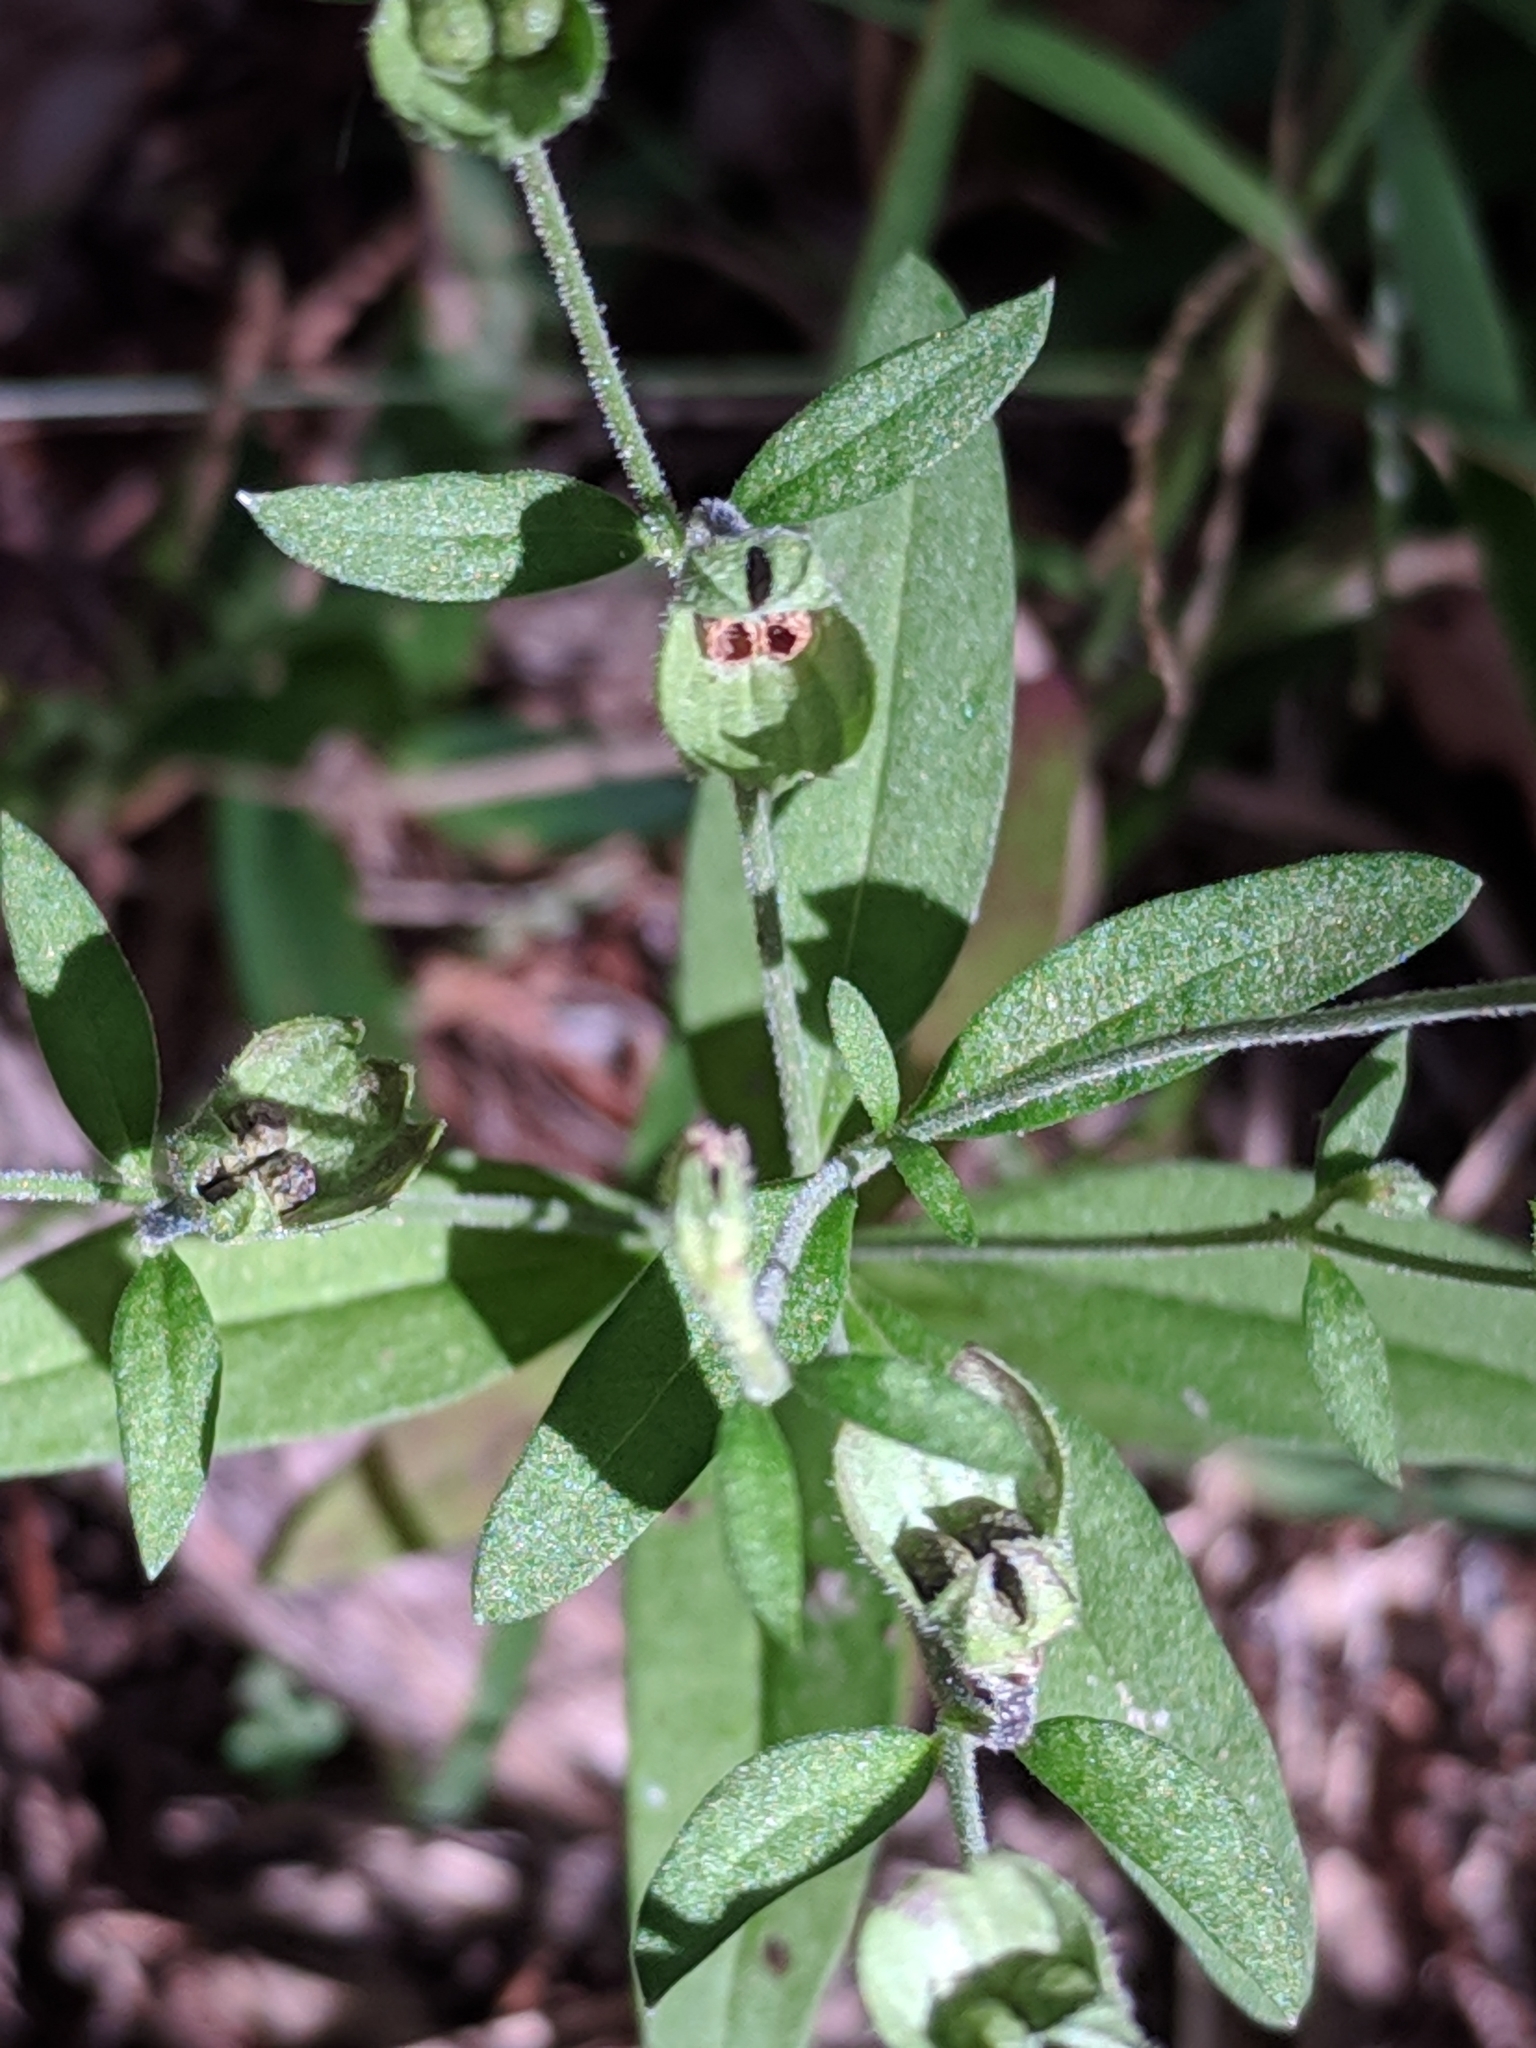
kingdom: Plantae
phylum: Tracheophyta
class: Magnoliopsida
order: Lamiales
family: Lamiaceae
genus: Trichostema
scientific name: Trichostema dichotomum
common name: Bastard pennyroyal
